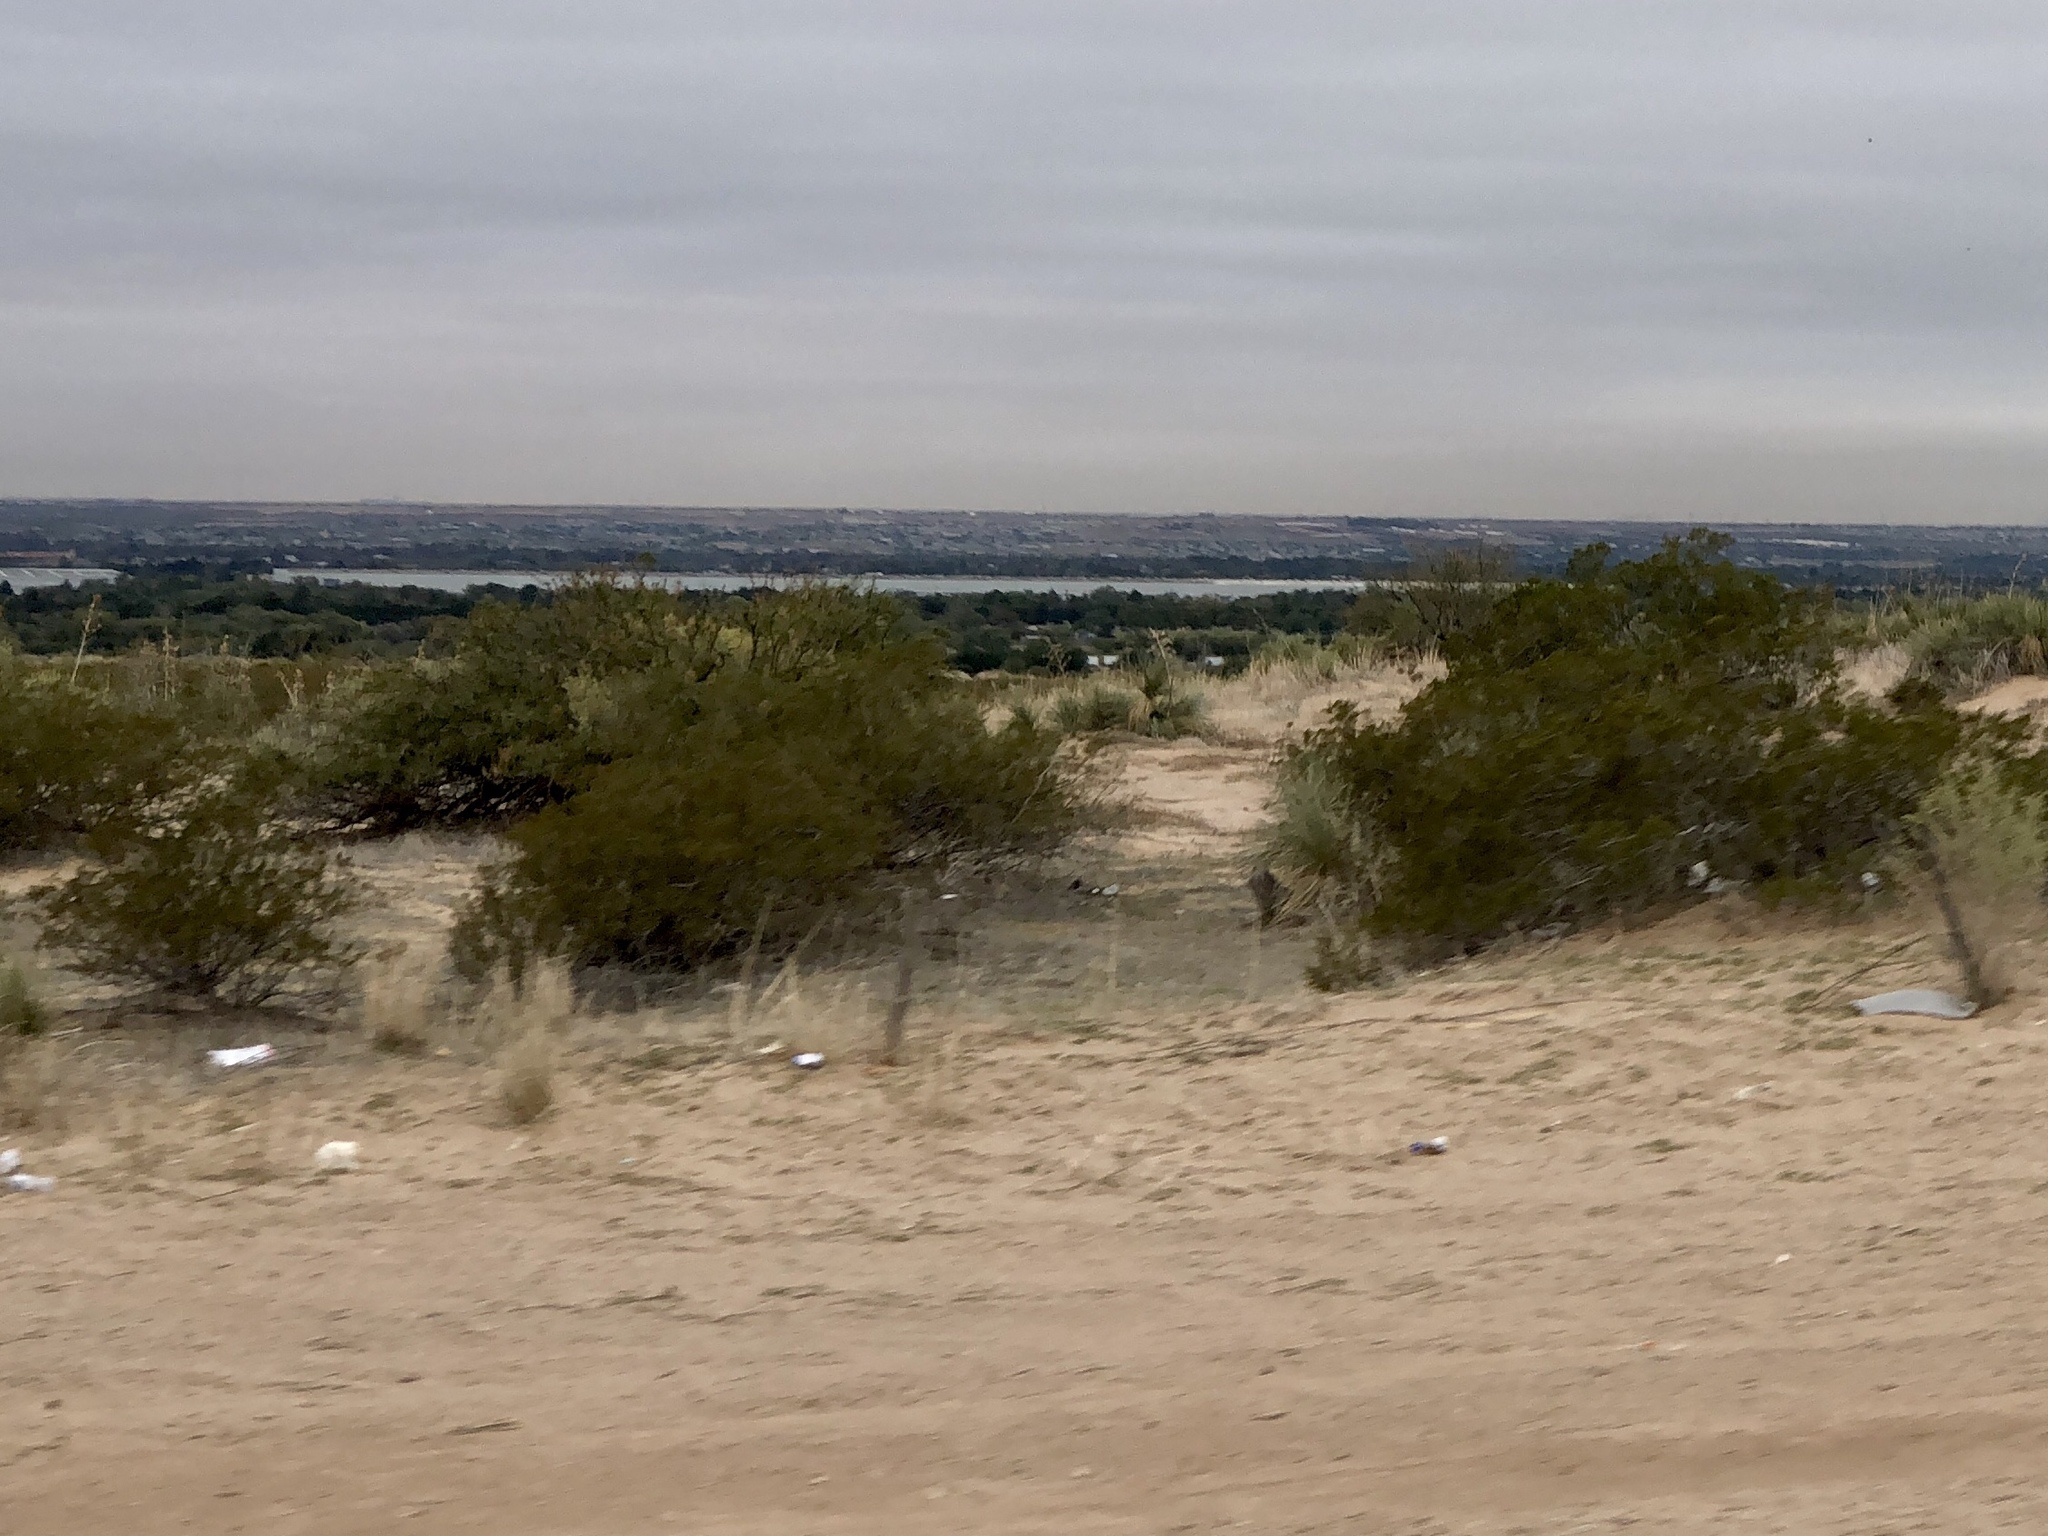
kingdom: Plantae
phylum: Tracheophyta
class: Magnoliopsida
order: Zygophyllales
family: Zygophyllaceae
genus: Larrea
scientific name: Larrea tridentata
